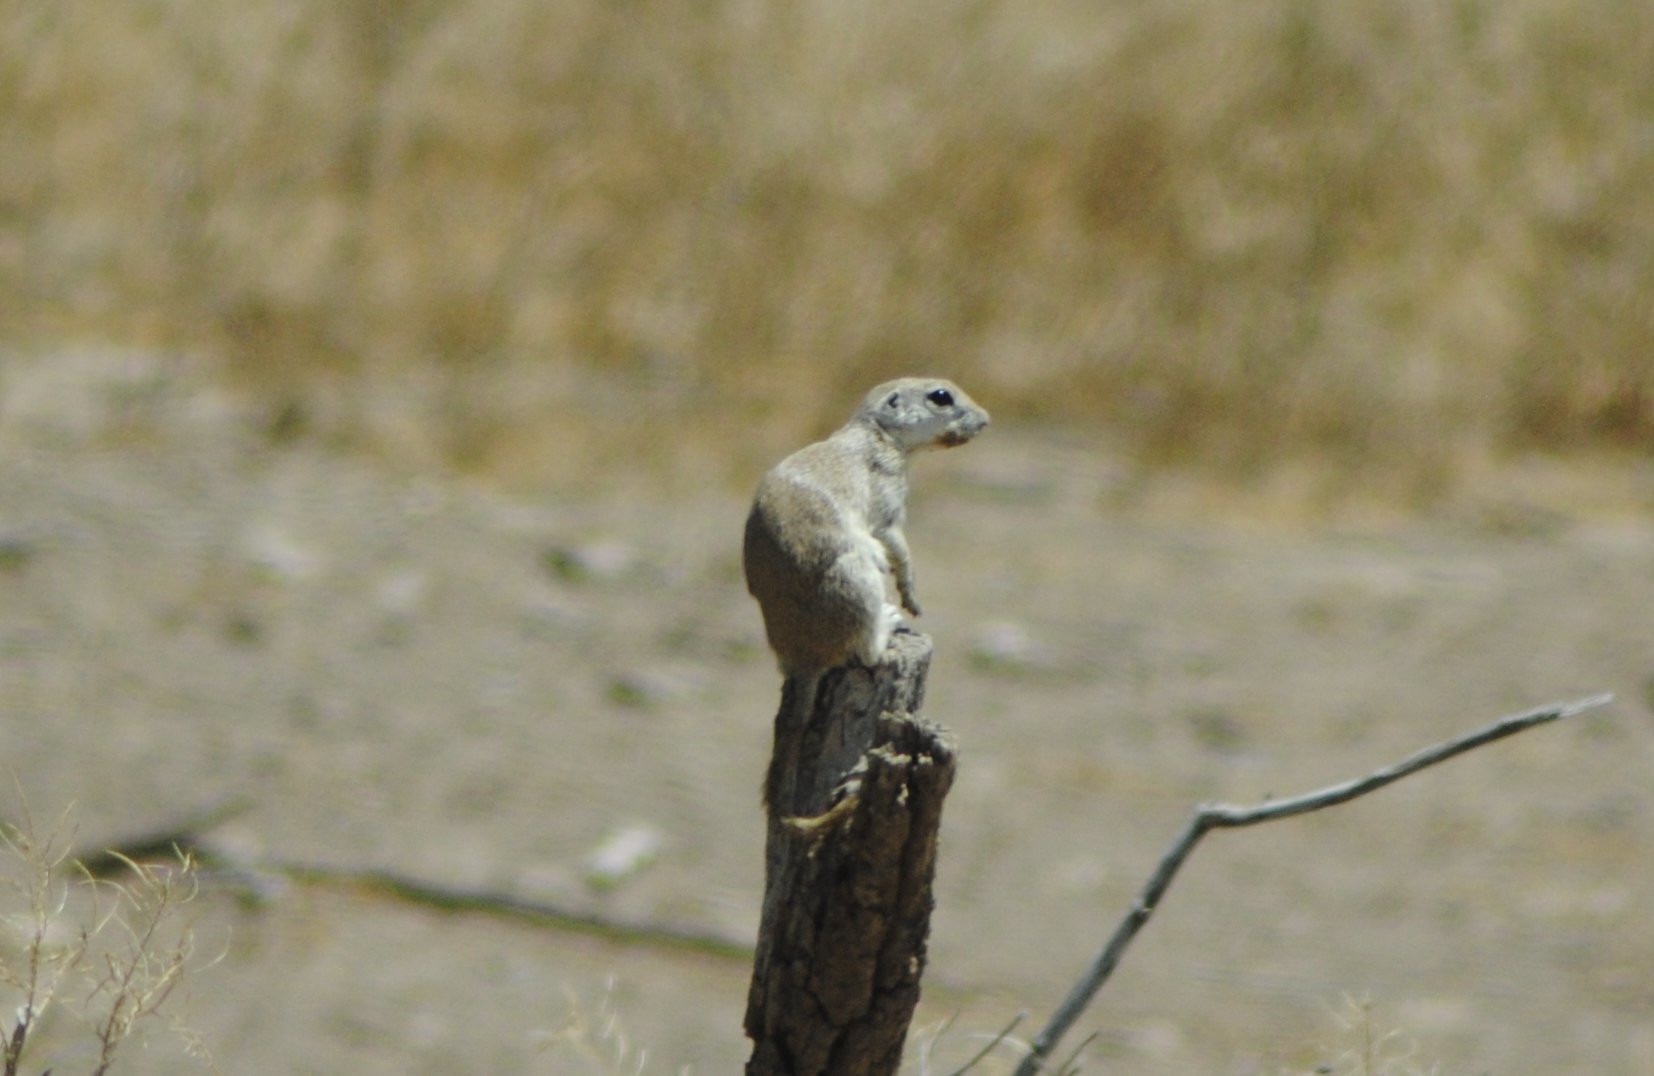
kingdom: Animalia
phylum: Chordata
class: Mammalia
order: Rodentia
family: Sciuridae
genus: Xerospermophilus
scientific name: Xerospermophilus tereticaudus
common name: Round-tailed ground squirrel
